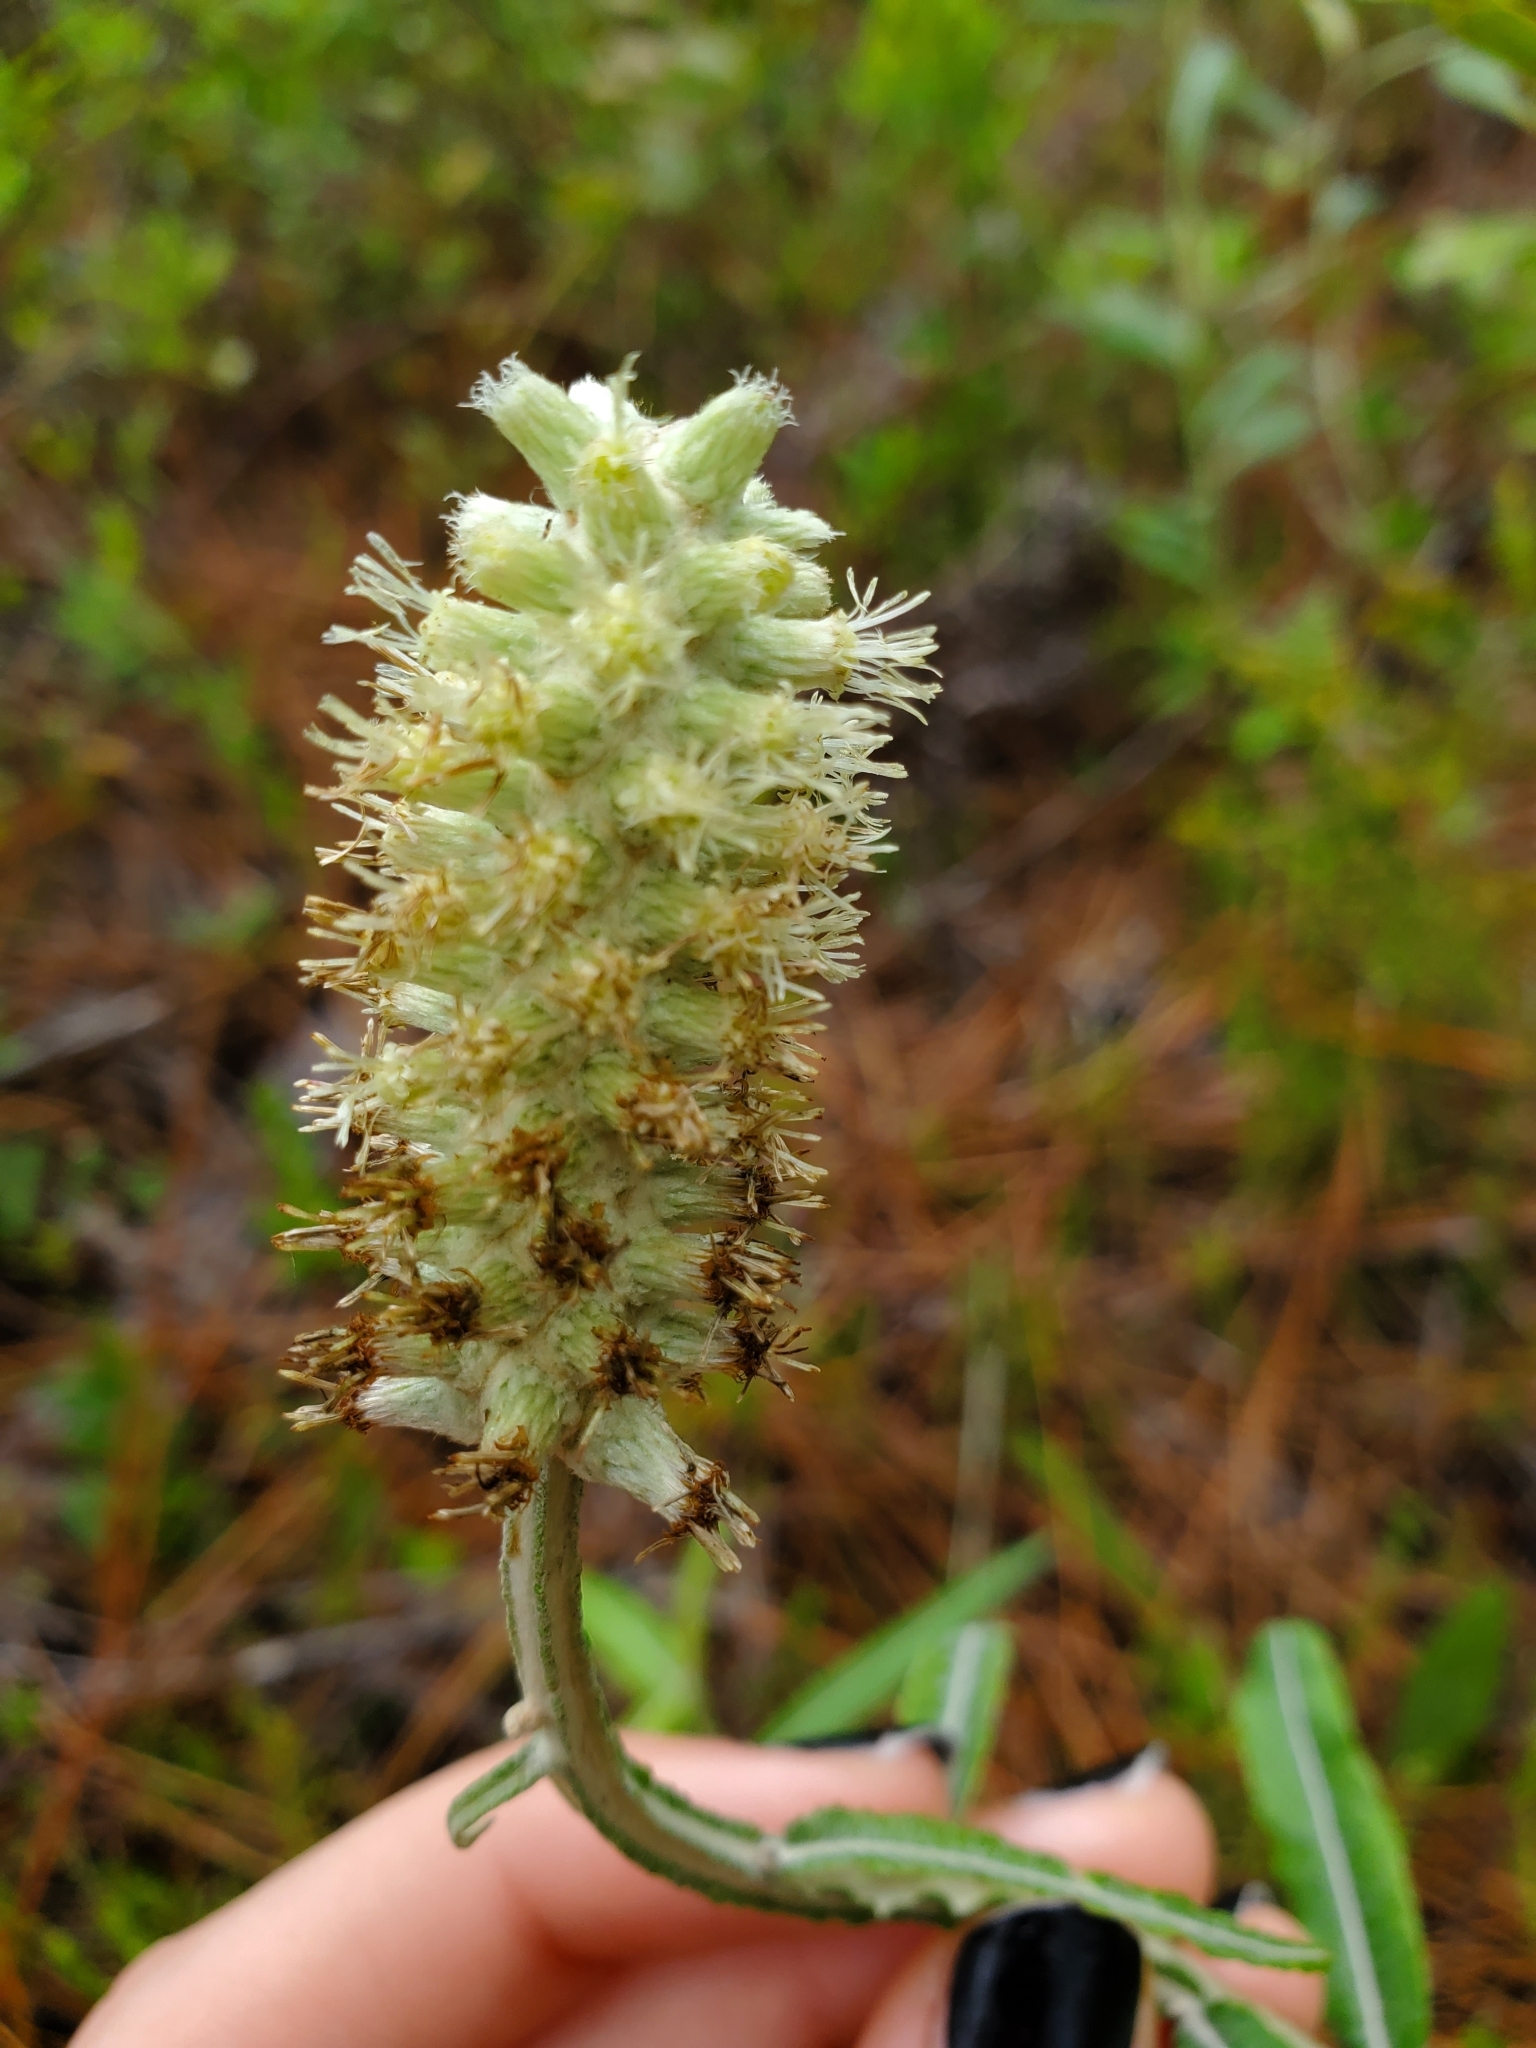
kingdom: Plantae
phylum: Tracheophyta
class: Magnoliopsida
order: Asterales
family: Asteraceae
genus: Pterocaulon
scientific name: Pterocaulon pycnostachyum
